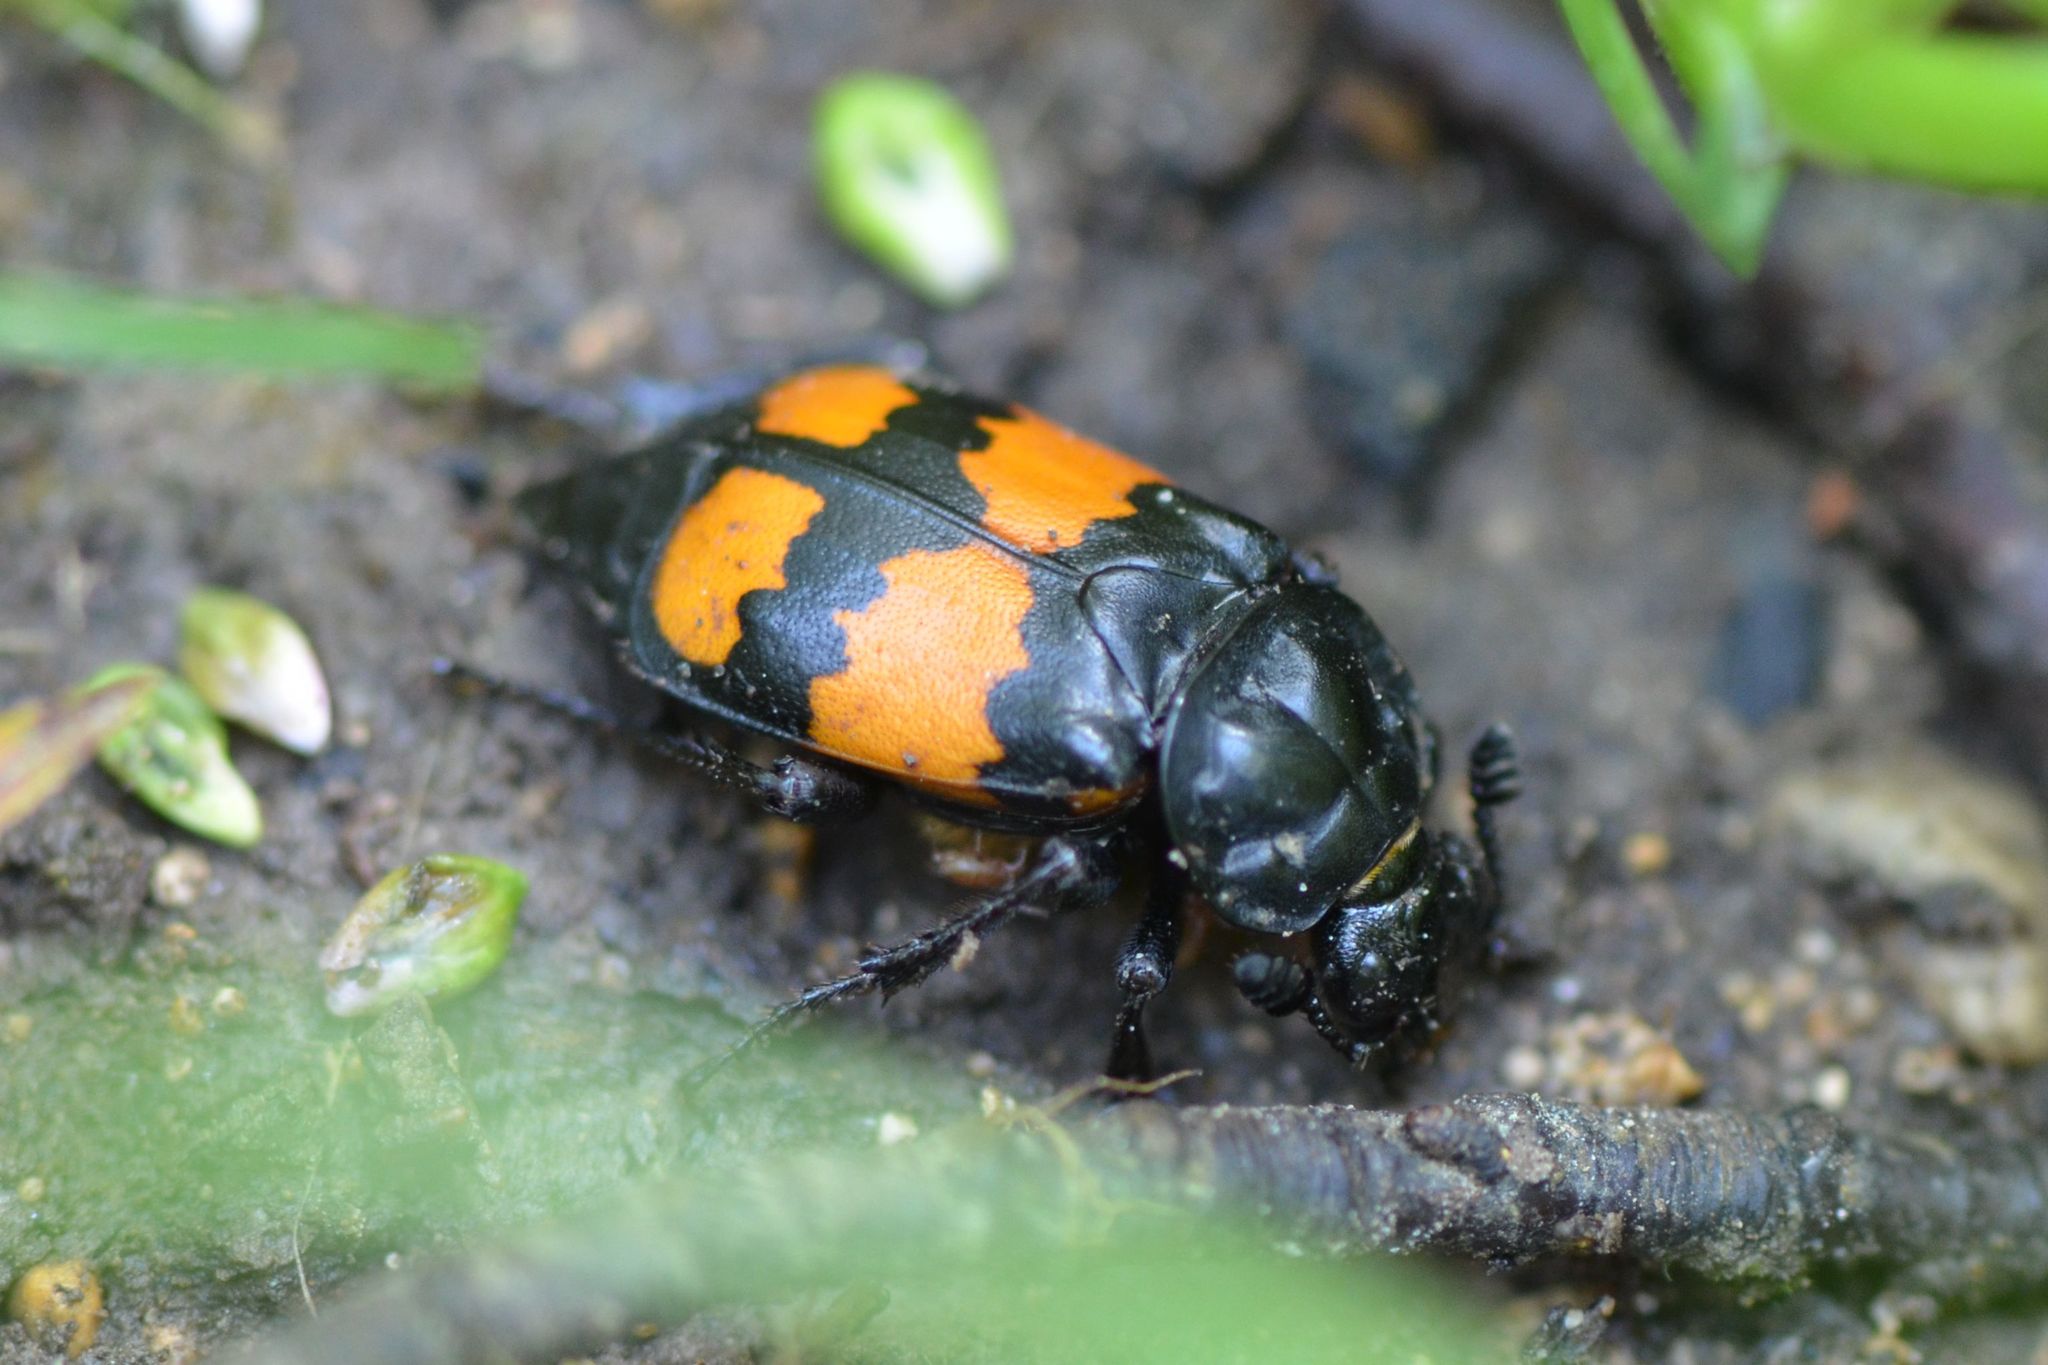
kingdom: Animalia
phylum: Arthropoda
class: Insecta
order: Coleoptera
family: Staphylinidae
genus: Nicrophorus
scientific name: Nicrophorus vespilloides
